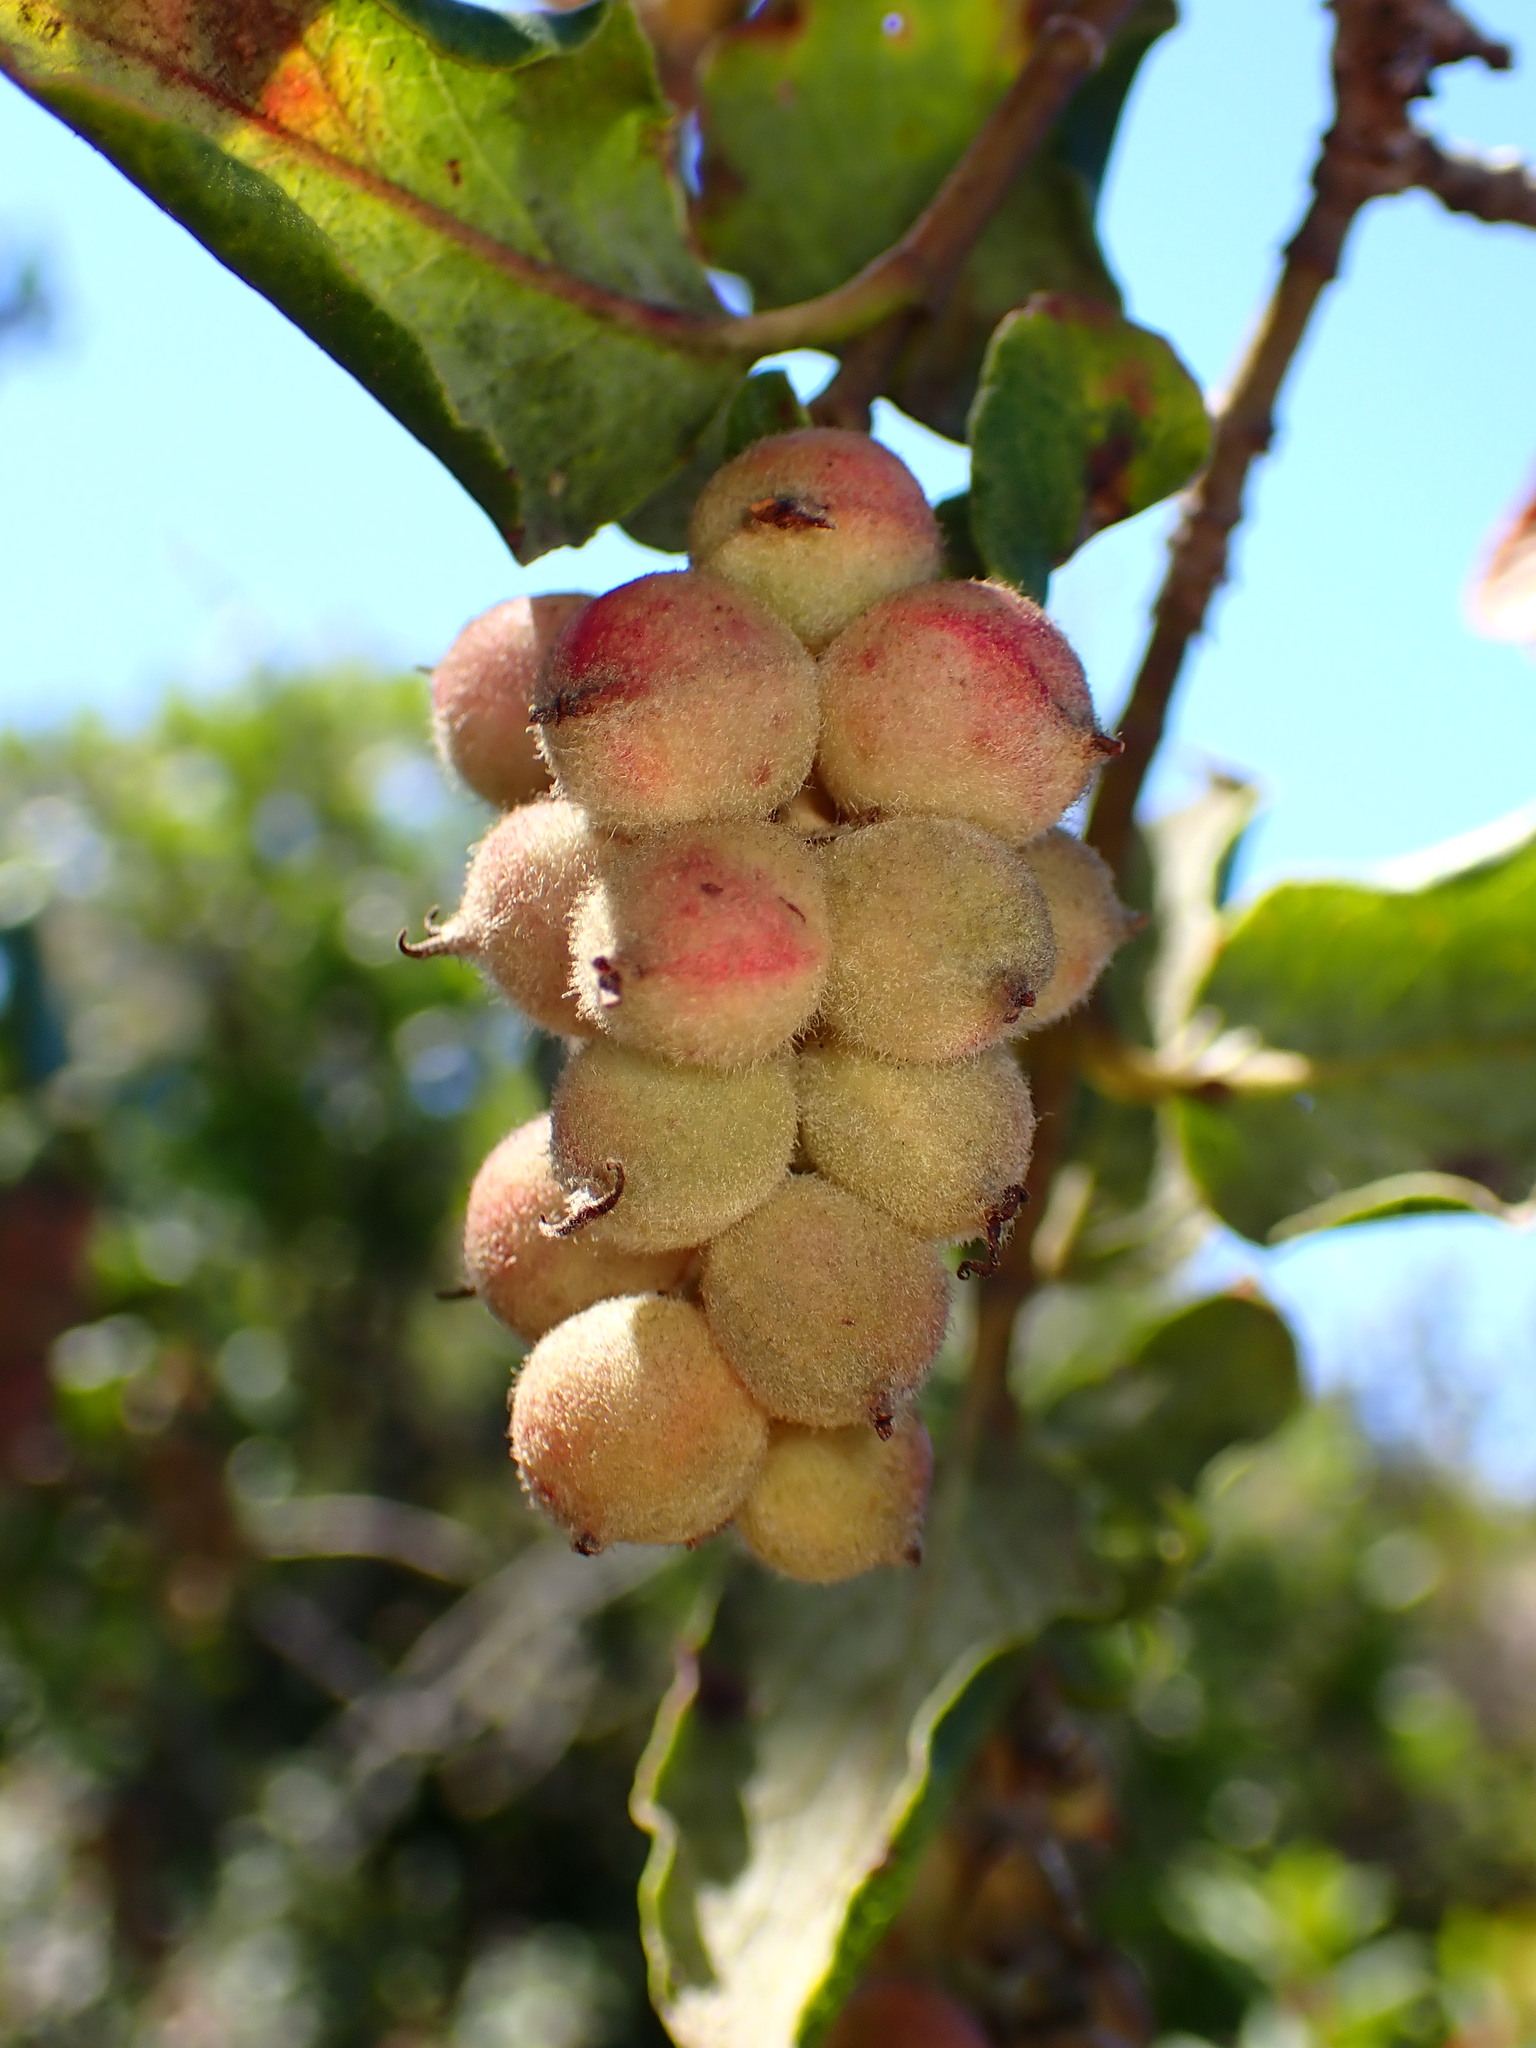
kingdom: Plantae
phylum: Tracheophyta
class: Magnoliopsida
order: Garryales
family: Garryaceae
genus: Garrya
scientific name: Garrya elliptica
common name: Silk-tassel
